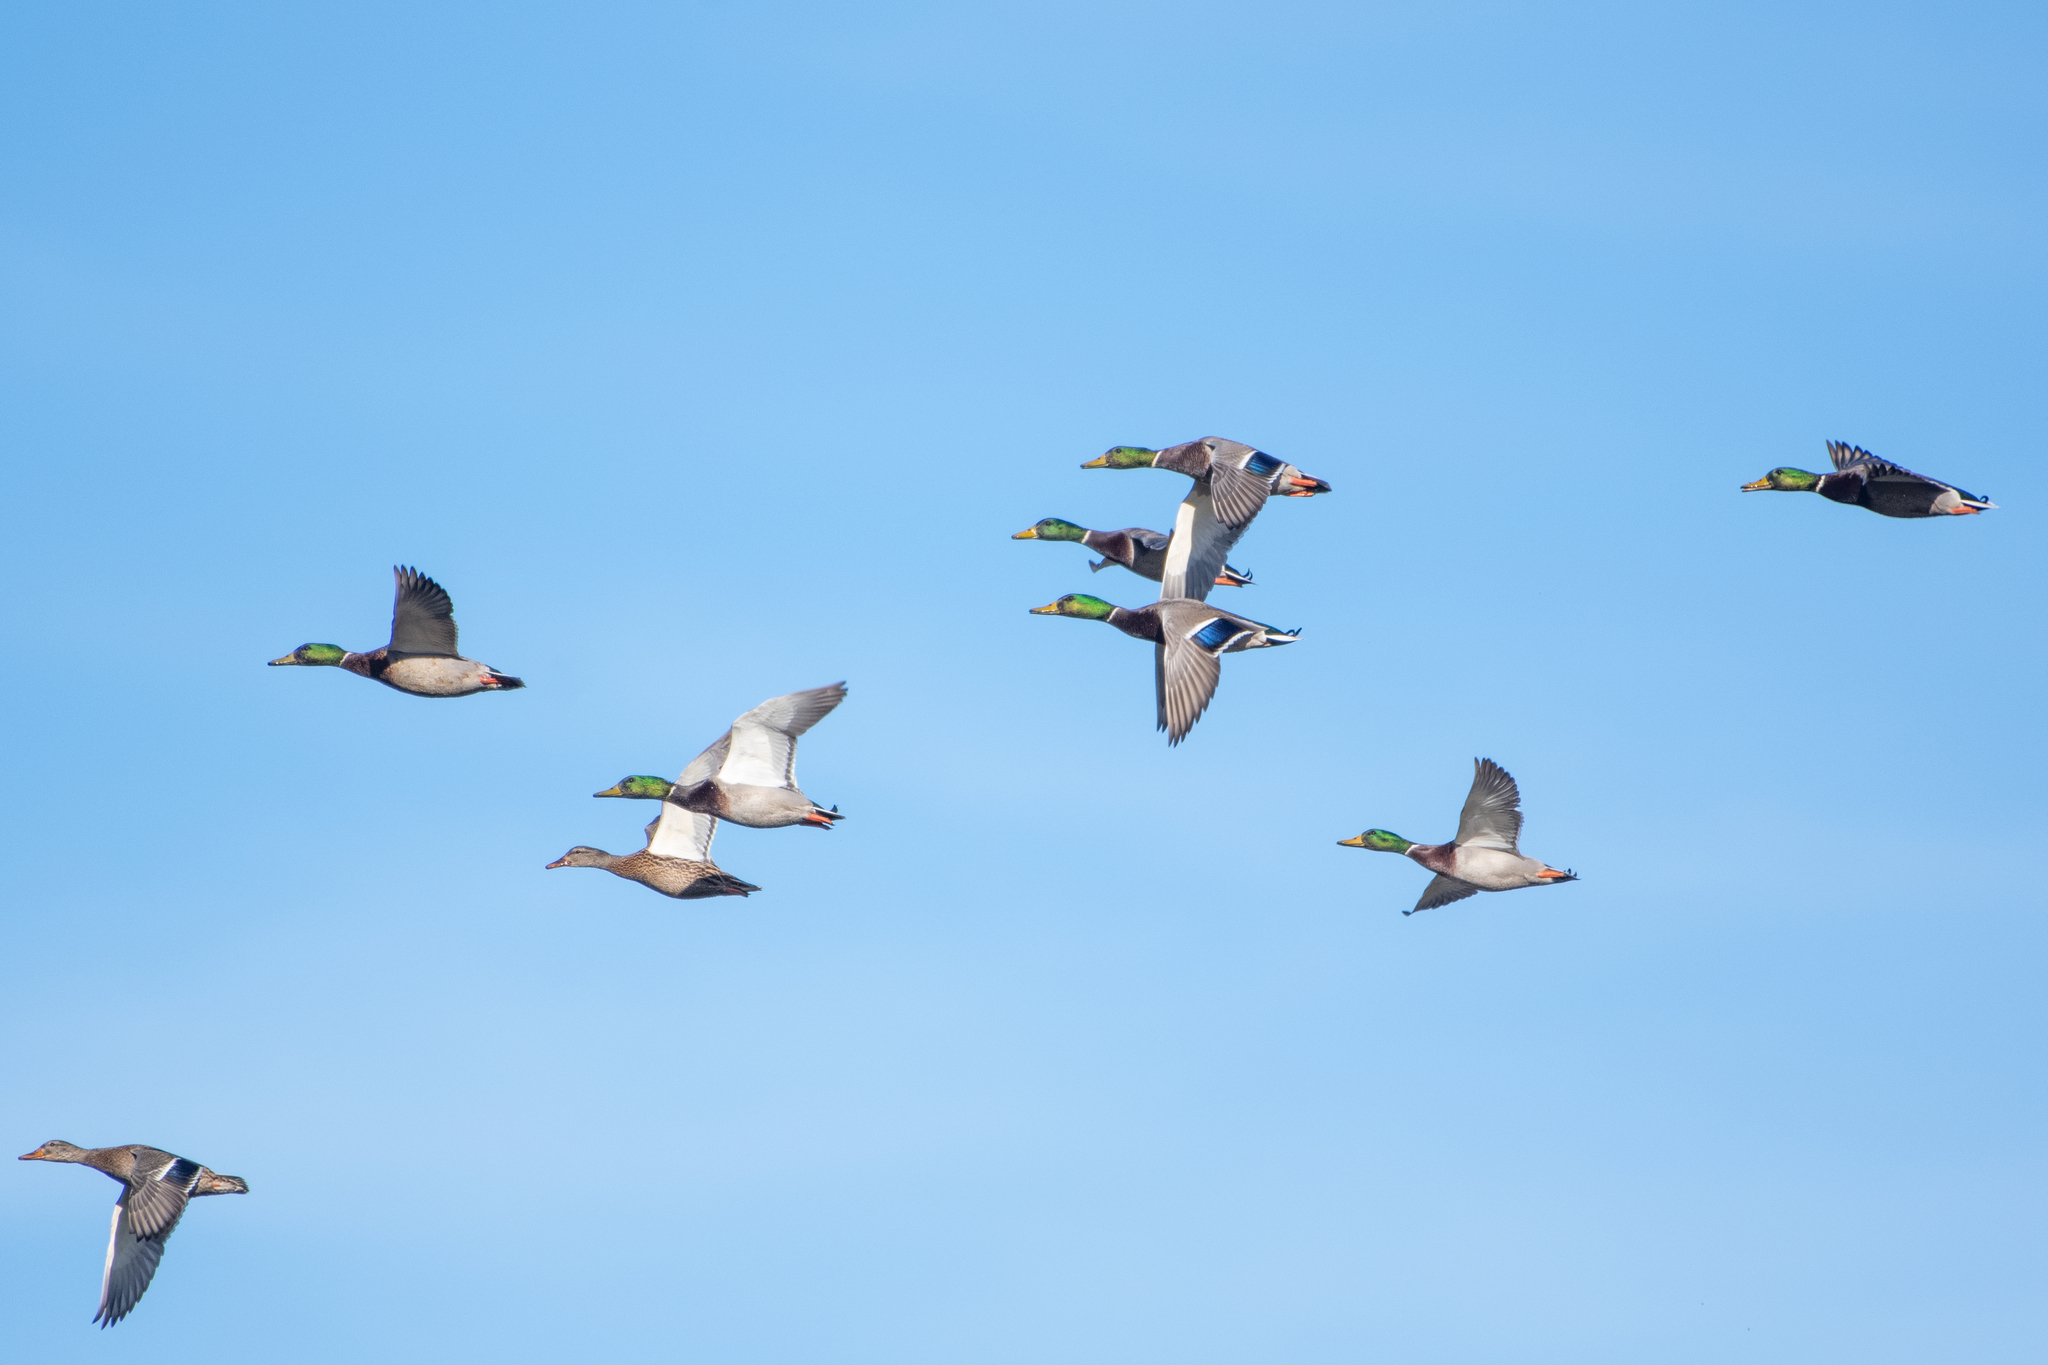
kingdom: Animalia
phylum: Chordata
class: Aves
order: Anseriformes
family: Anatidae
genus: Anas
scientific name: Anas platyrhynchos
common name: Mallard
